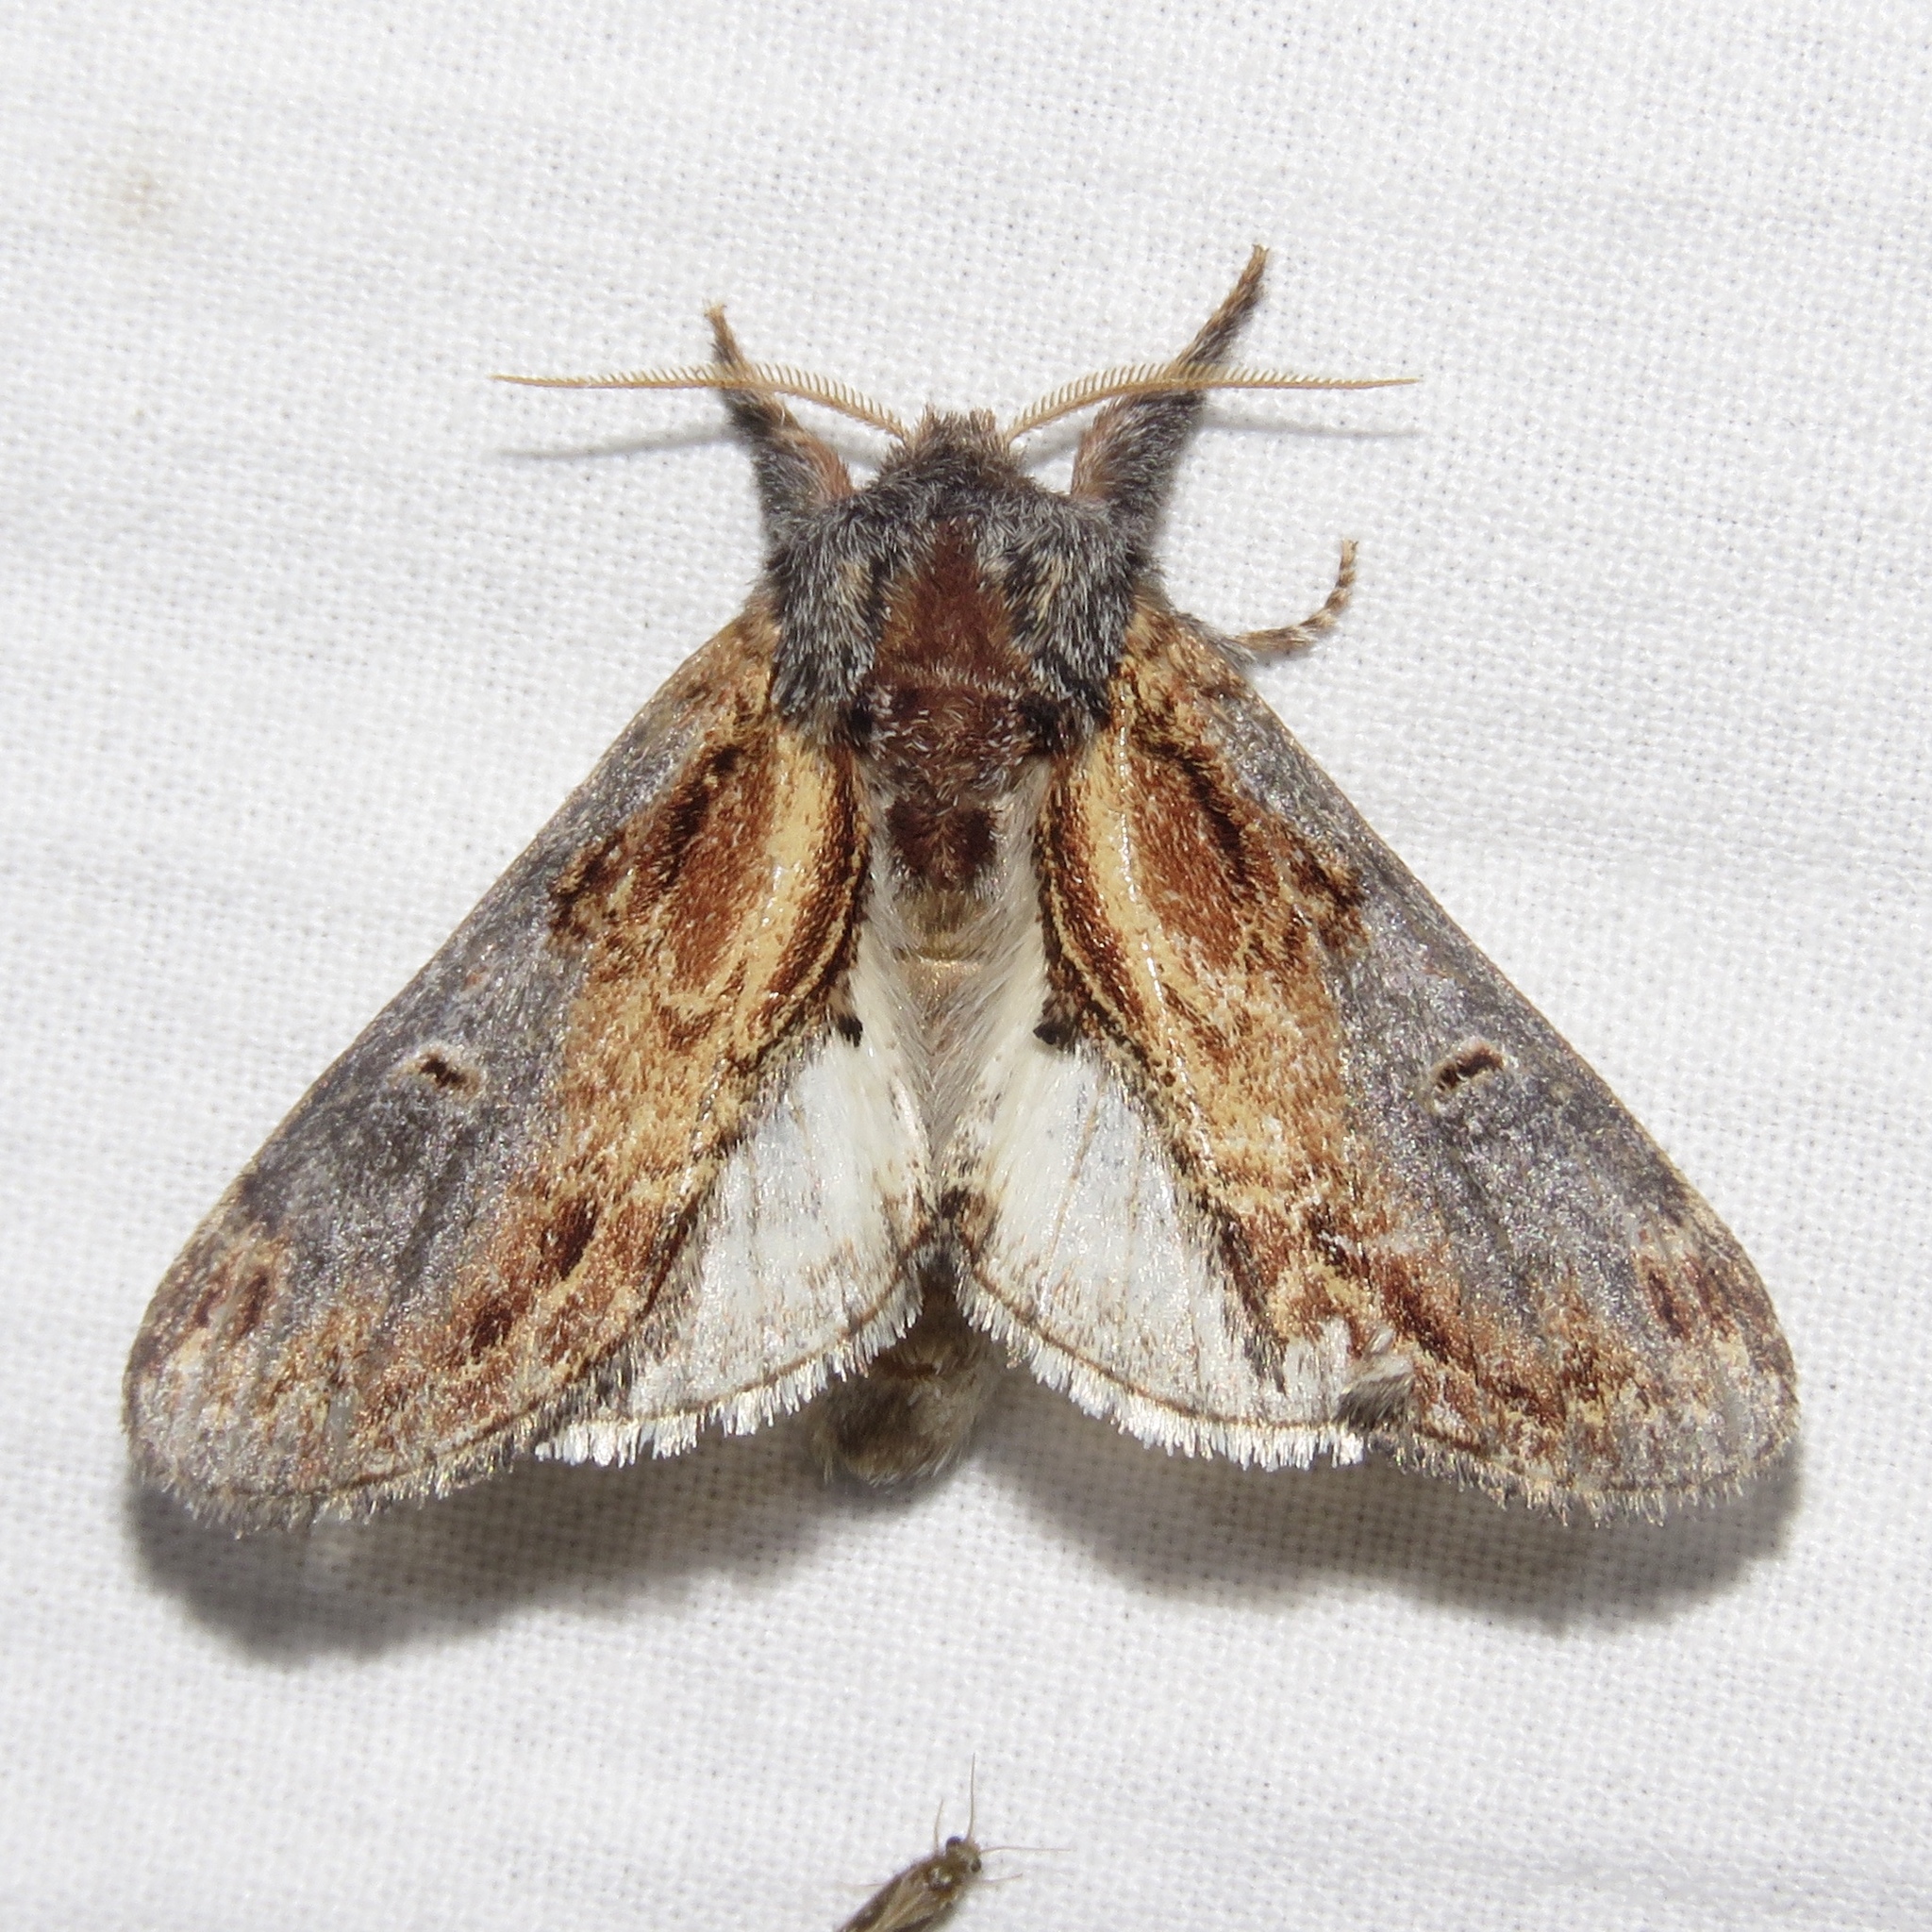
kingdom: Animalia
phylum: Arthropoda
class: Insecta
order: Lepidoptera
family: Notodontidae
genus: Notodonta
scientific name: Notodonta scitipennis
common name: Finned-willow prominent moth
